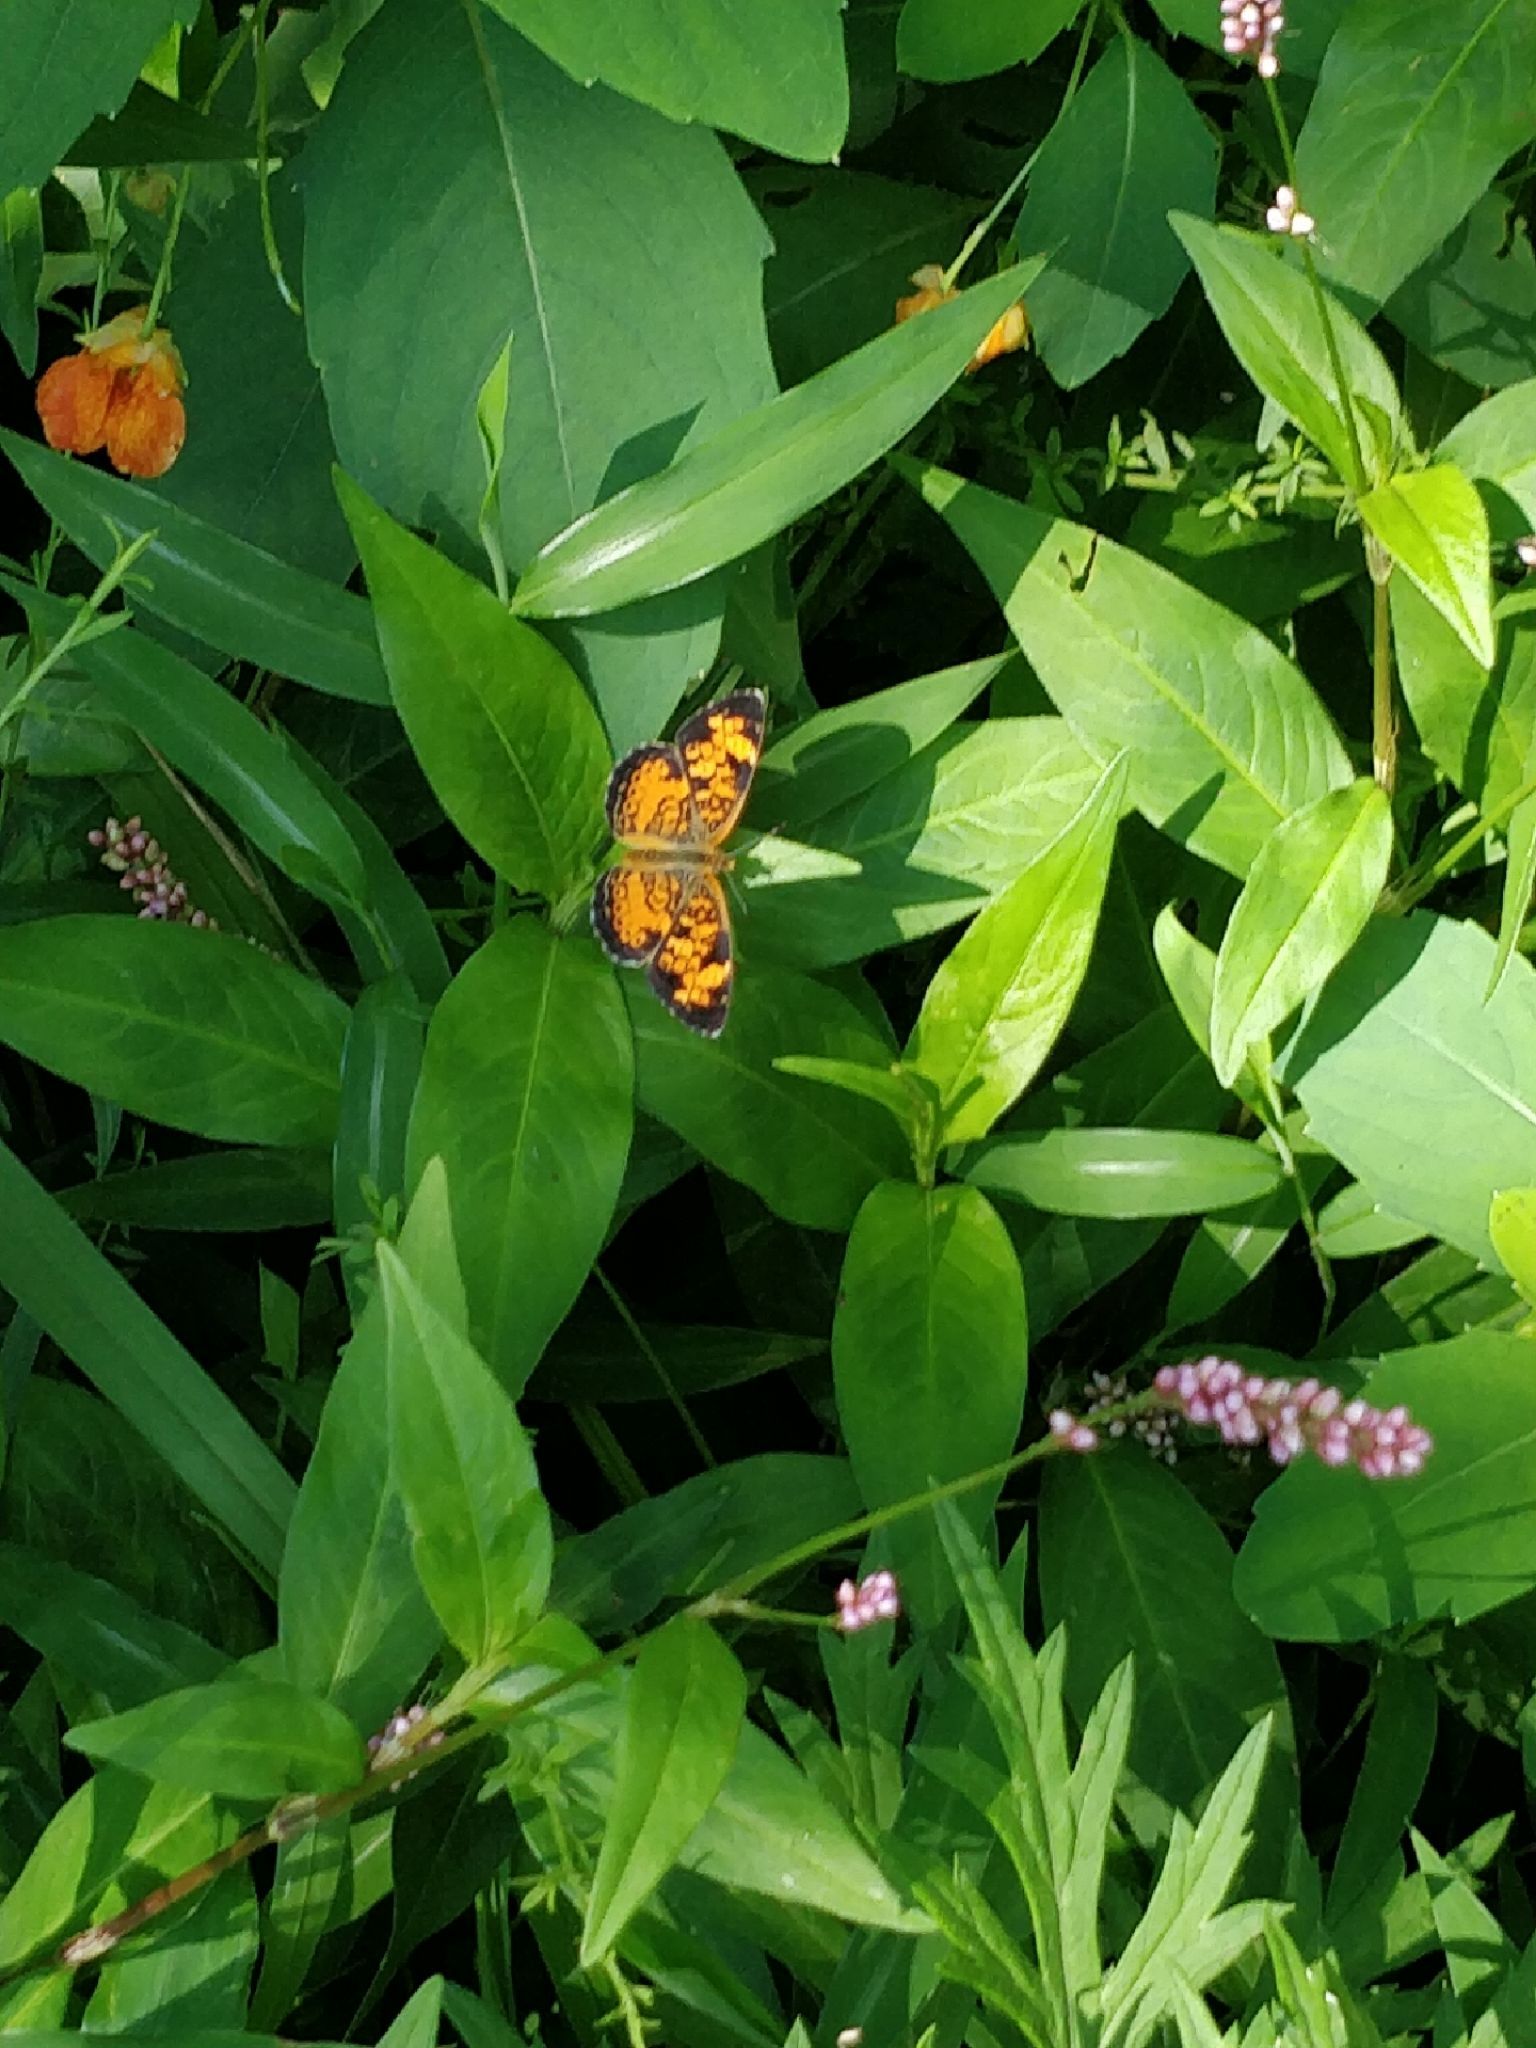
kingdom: Animalia
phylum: Arthropoda
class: Insecta
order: Lepidoptera
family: Nymphalidae
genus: Phyciodes
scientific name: Phyciodes tharos
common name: Pearl crescent
